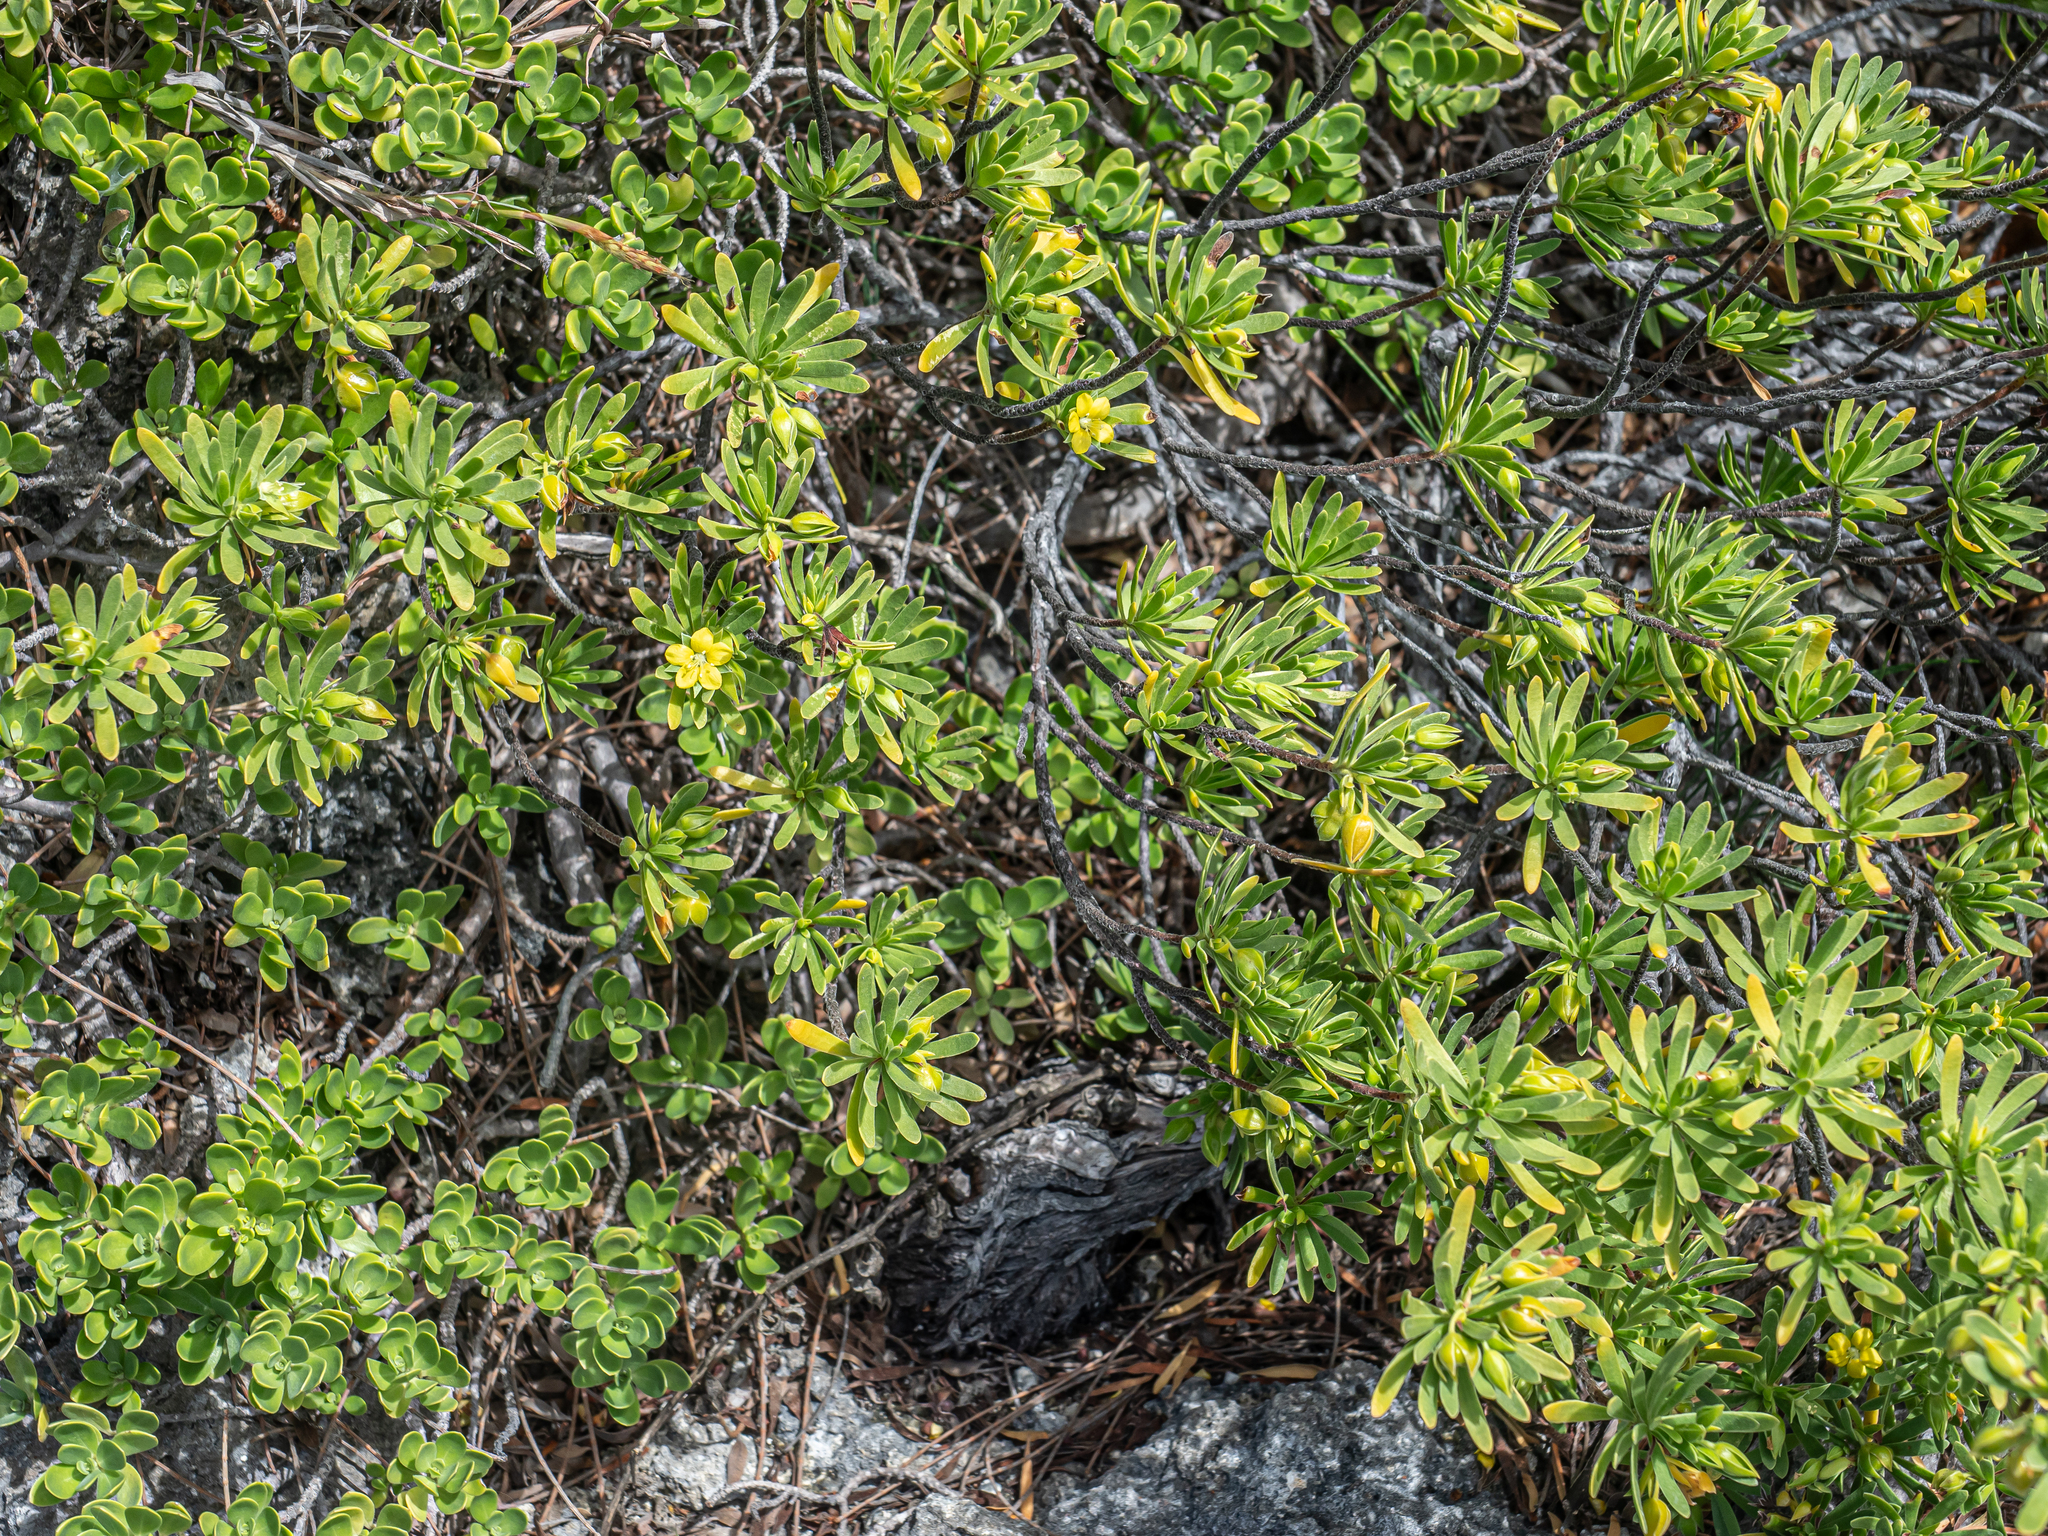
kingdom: Plantae
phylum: Tracheophyta
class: Magnoliopsida
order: Fabales
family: Surianaceae
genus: Suriana
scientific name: Suriana maritima
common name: Bay-cedar
